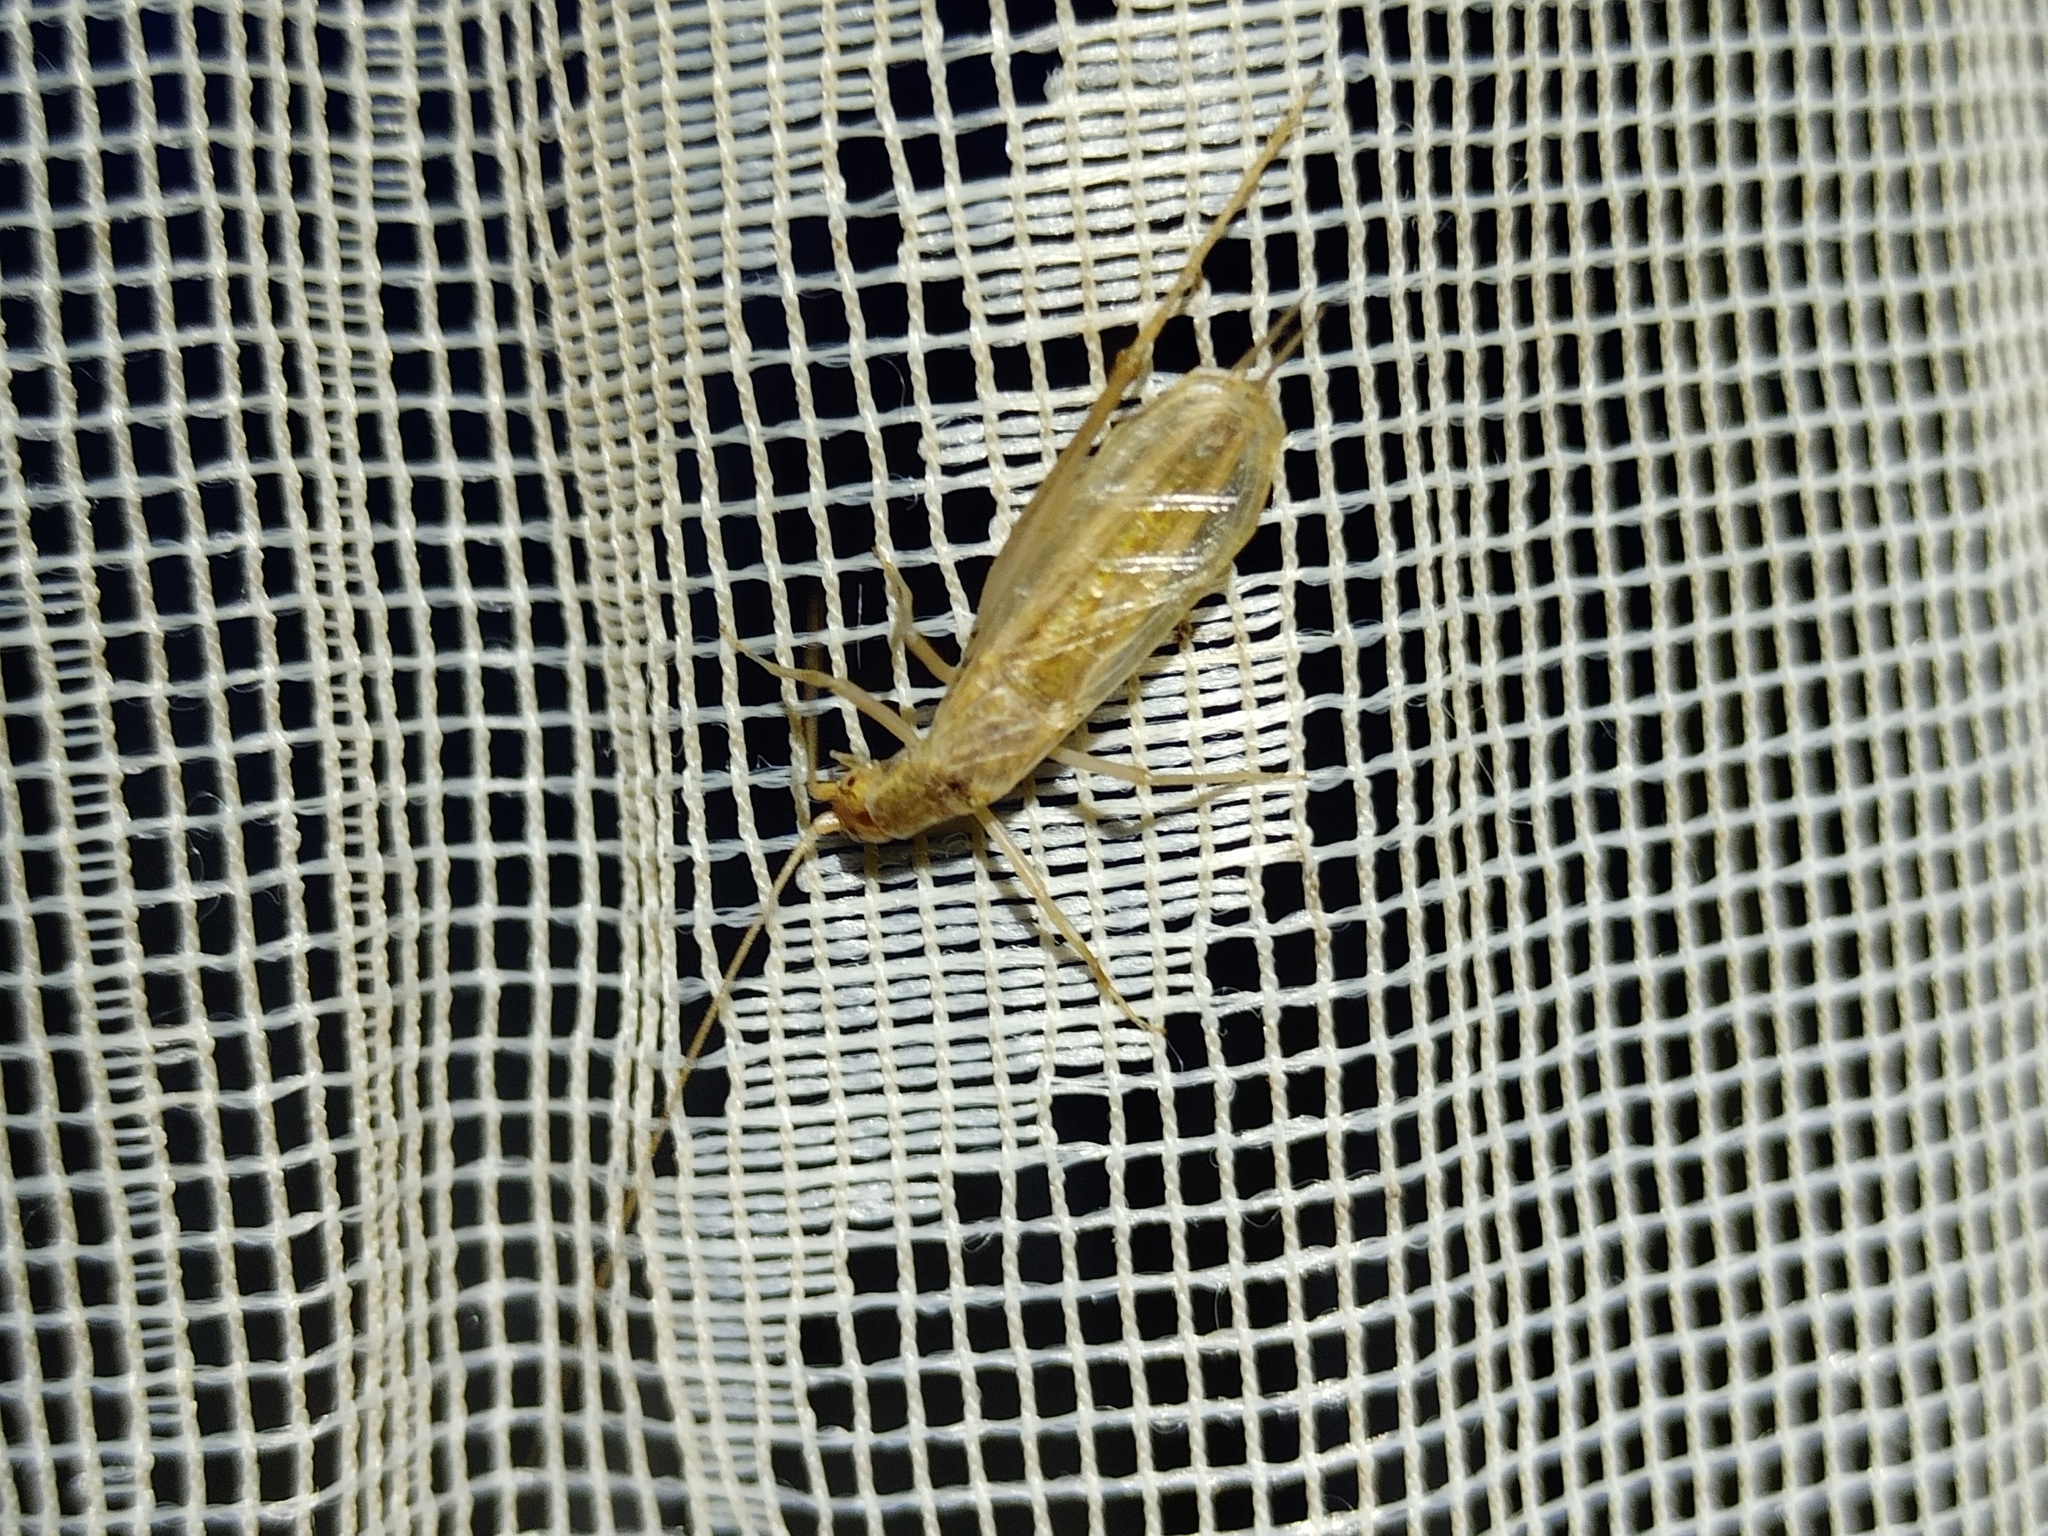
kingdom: Animalia
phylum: Arthropoda
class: Insecta
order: Orthoptera
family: Gryllidae
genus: Oecanthus
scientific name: Oecanthus pellucens
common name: Tree-cricket
